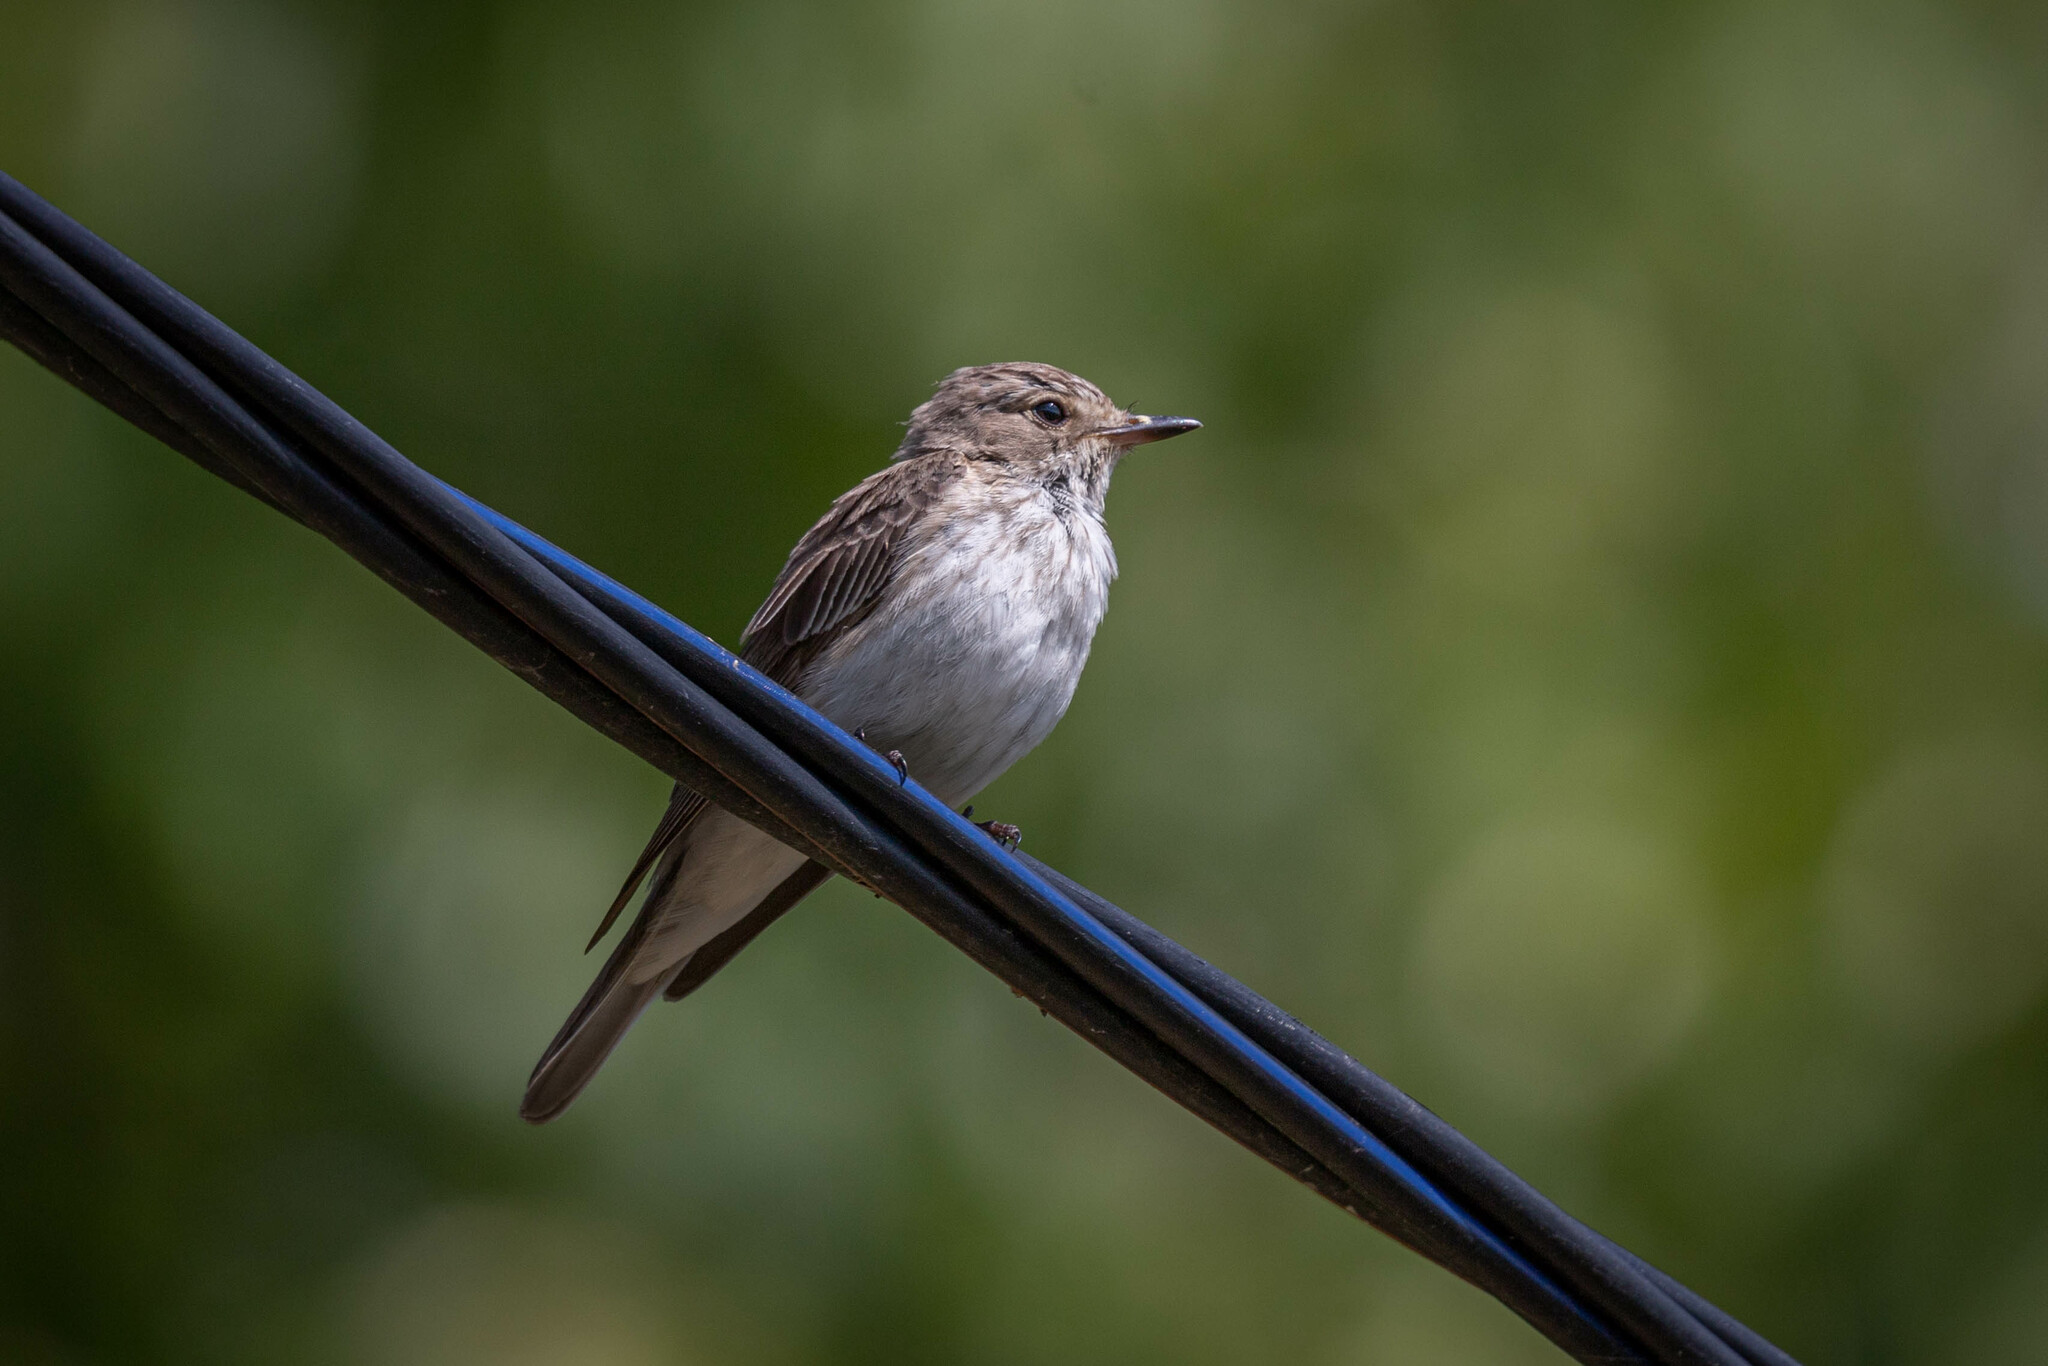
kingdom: Animalia
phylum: Chordata
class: Aves
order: Passeriformes
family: Muscicapidae
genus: Muscicapa
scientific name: Muscicapa striata
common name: Spotted flycatcher
